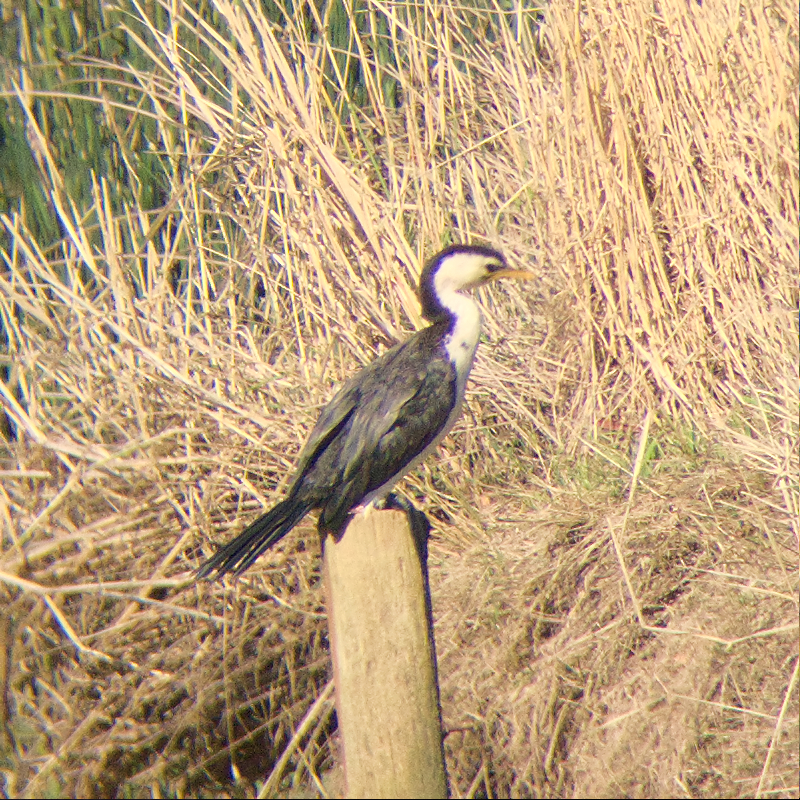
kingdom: Animalia
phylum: Chordata
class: Aves
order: Suliformes
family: Phalacrocoracidae
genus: Microcarbo
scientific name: Microcarbo melanoleucos
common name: Little pied cormorant
